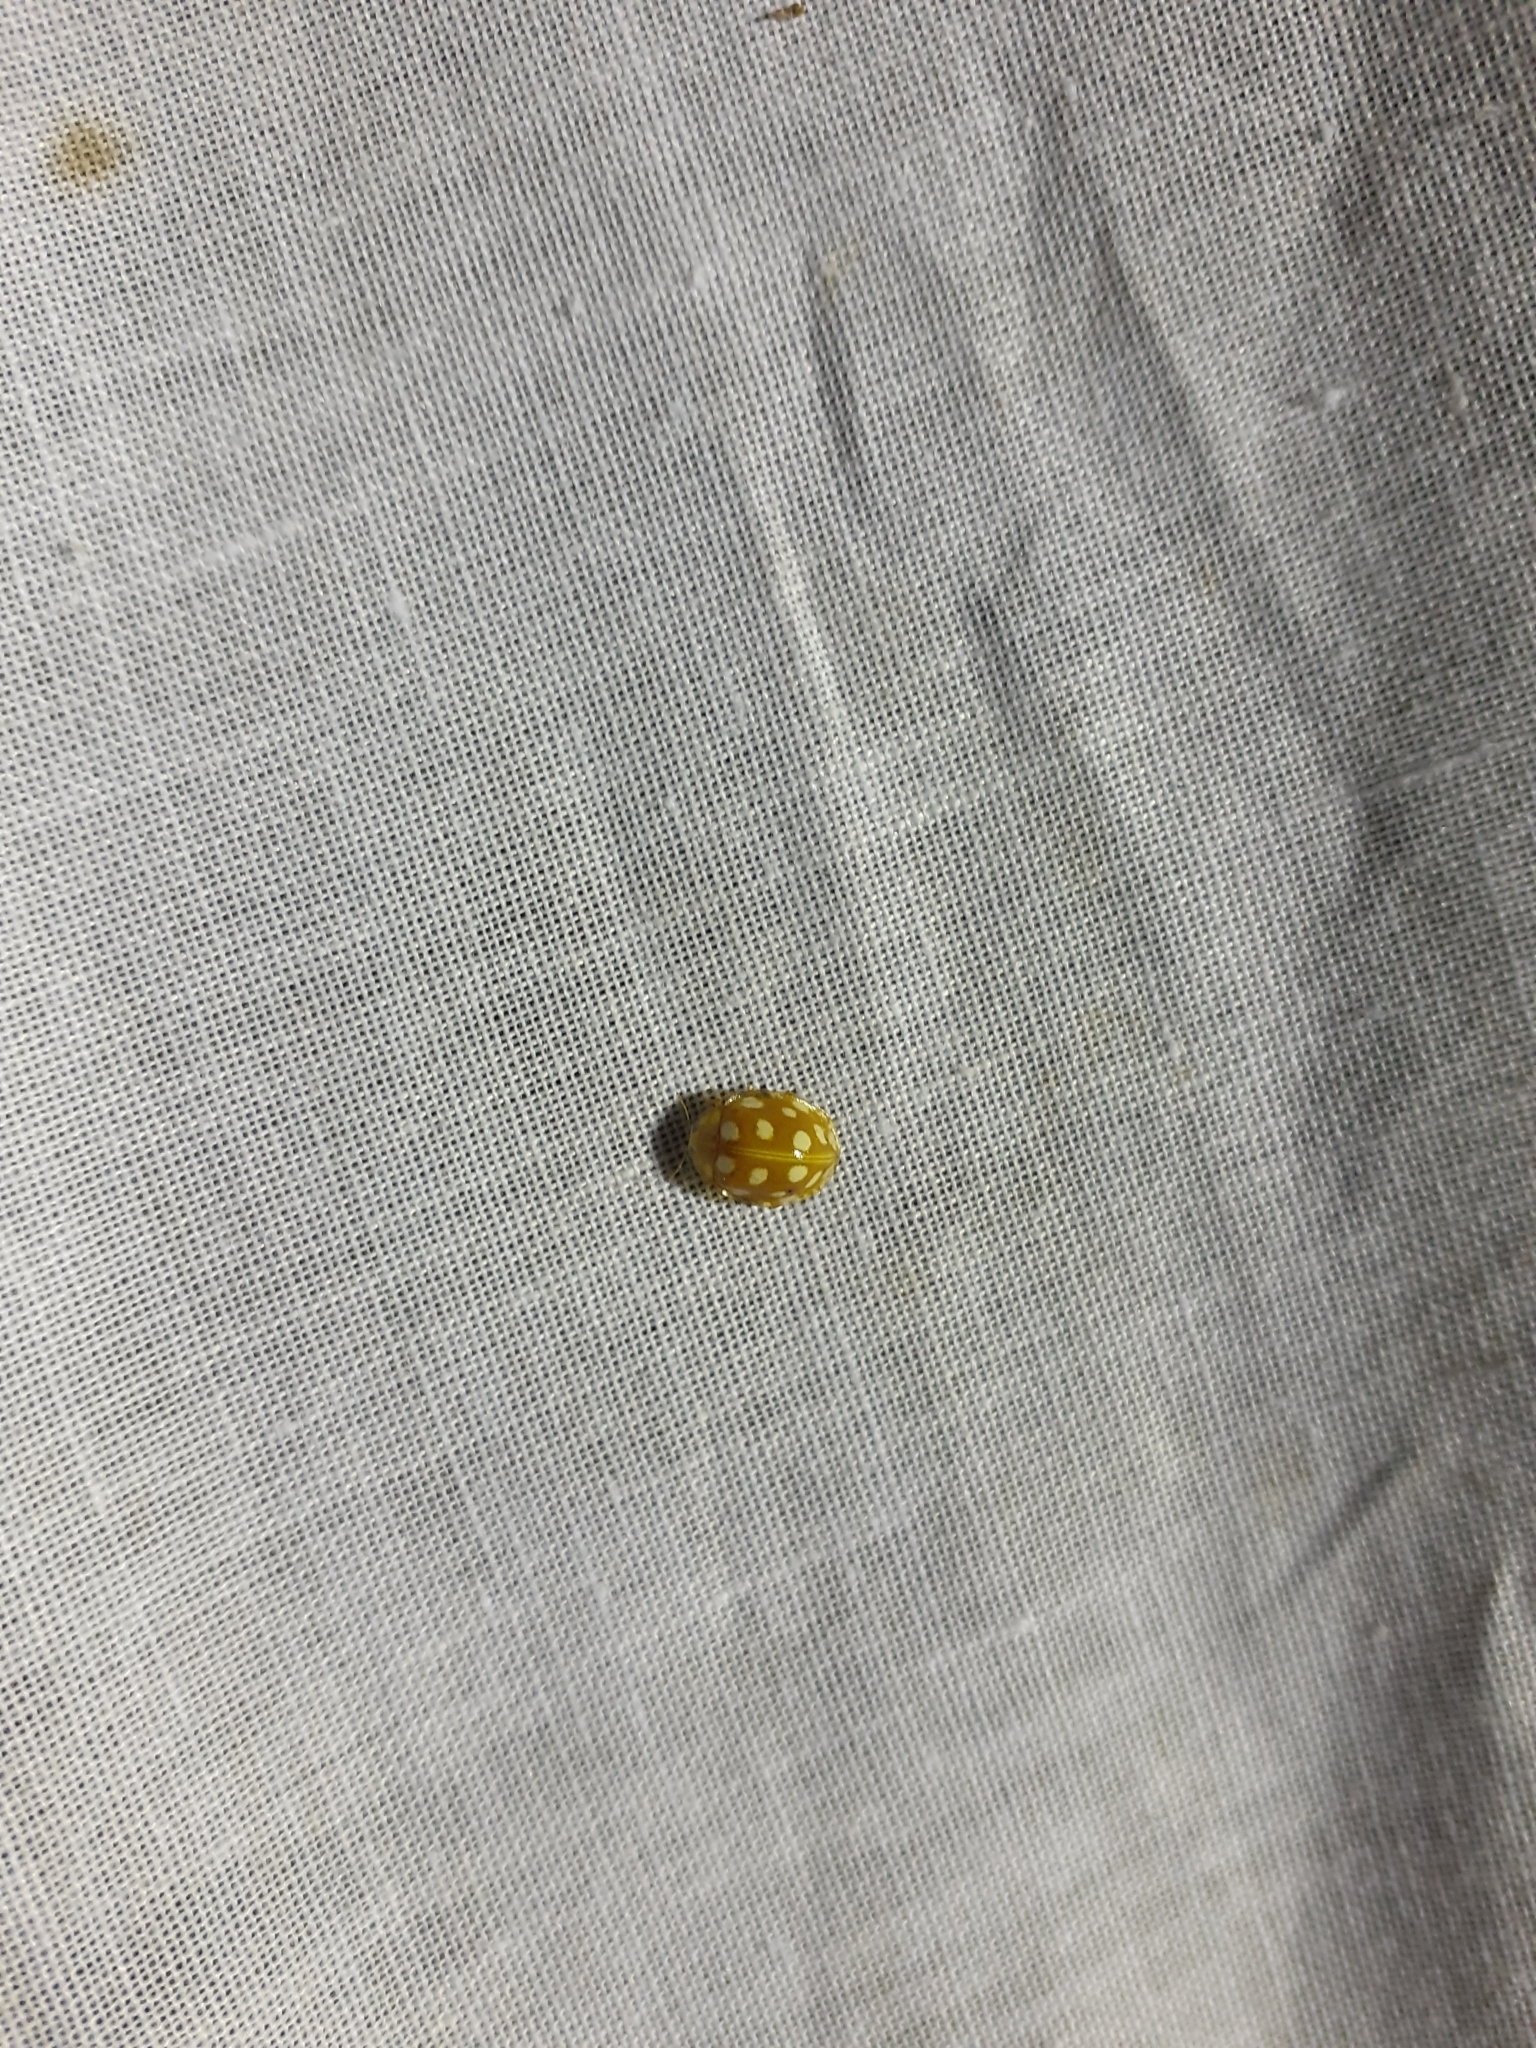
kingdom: Animalia
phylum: Arthropoda
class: Insecta
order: Coleoptera
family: Coccinellidae
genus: Halyzia
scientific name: Halyzia sedecimguttata
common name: Orange ladybird
